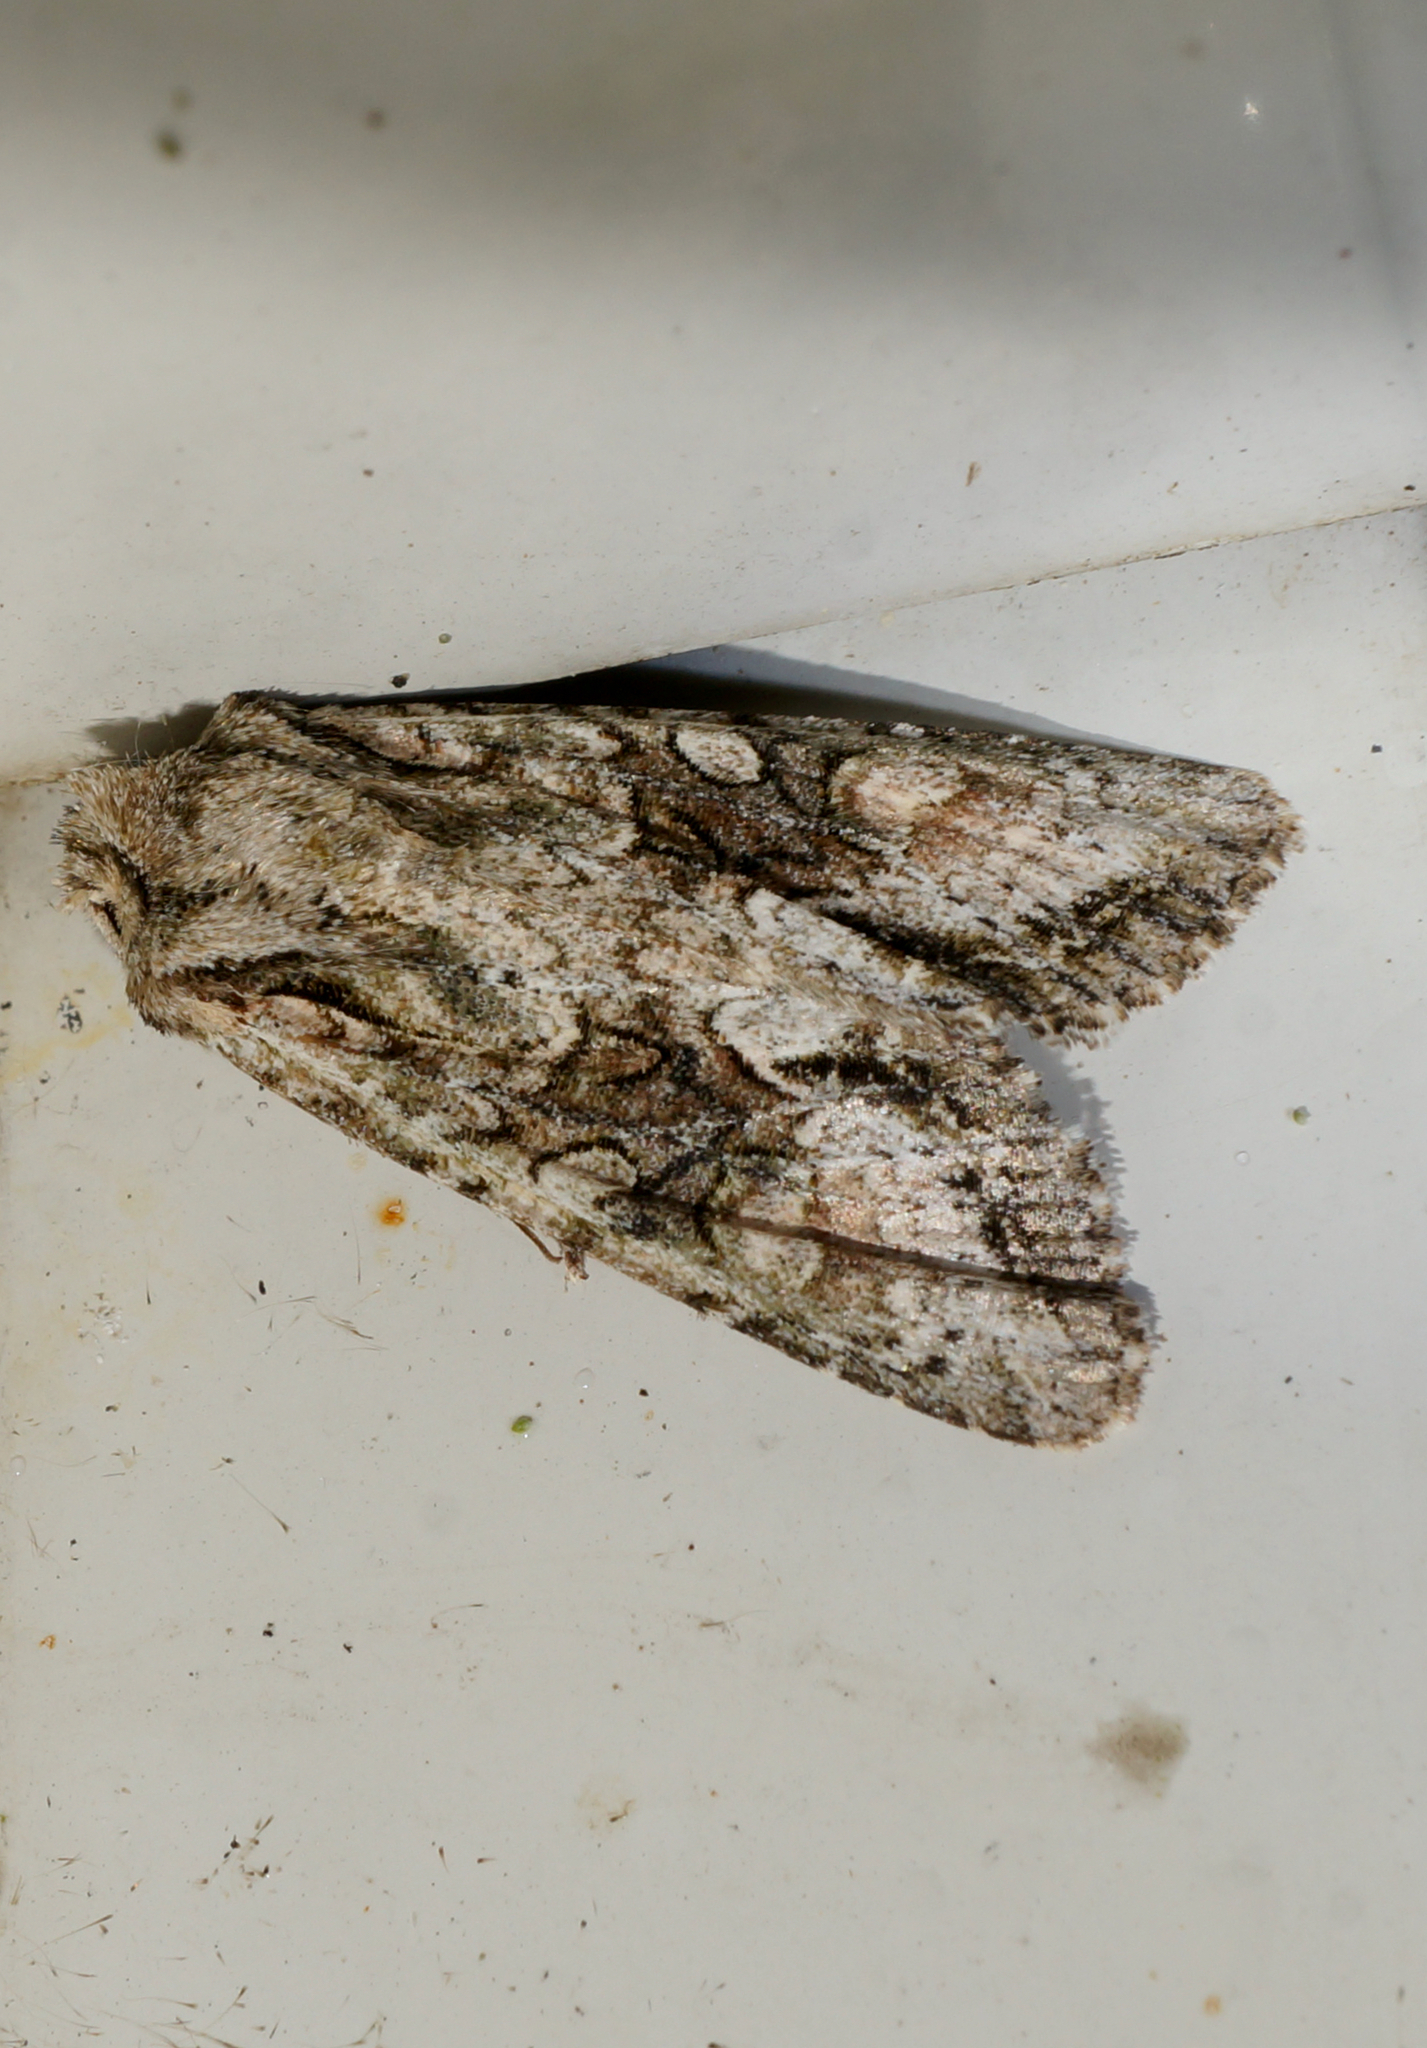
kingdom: Animalia
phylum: Arthropoda
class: Insecta
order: Lepidoptera
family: Noctuidae
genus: Ichneutica
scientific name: Ichneutica mutans
